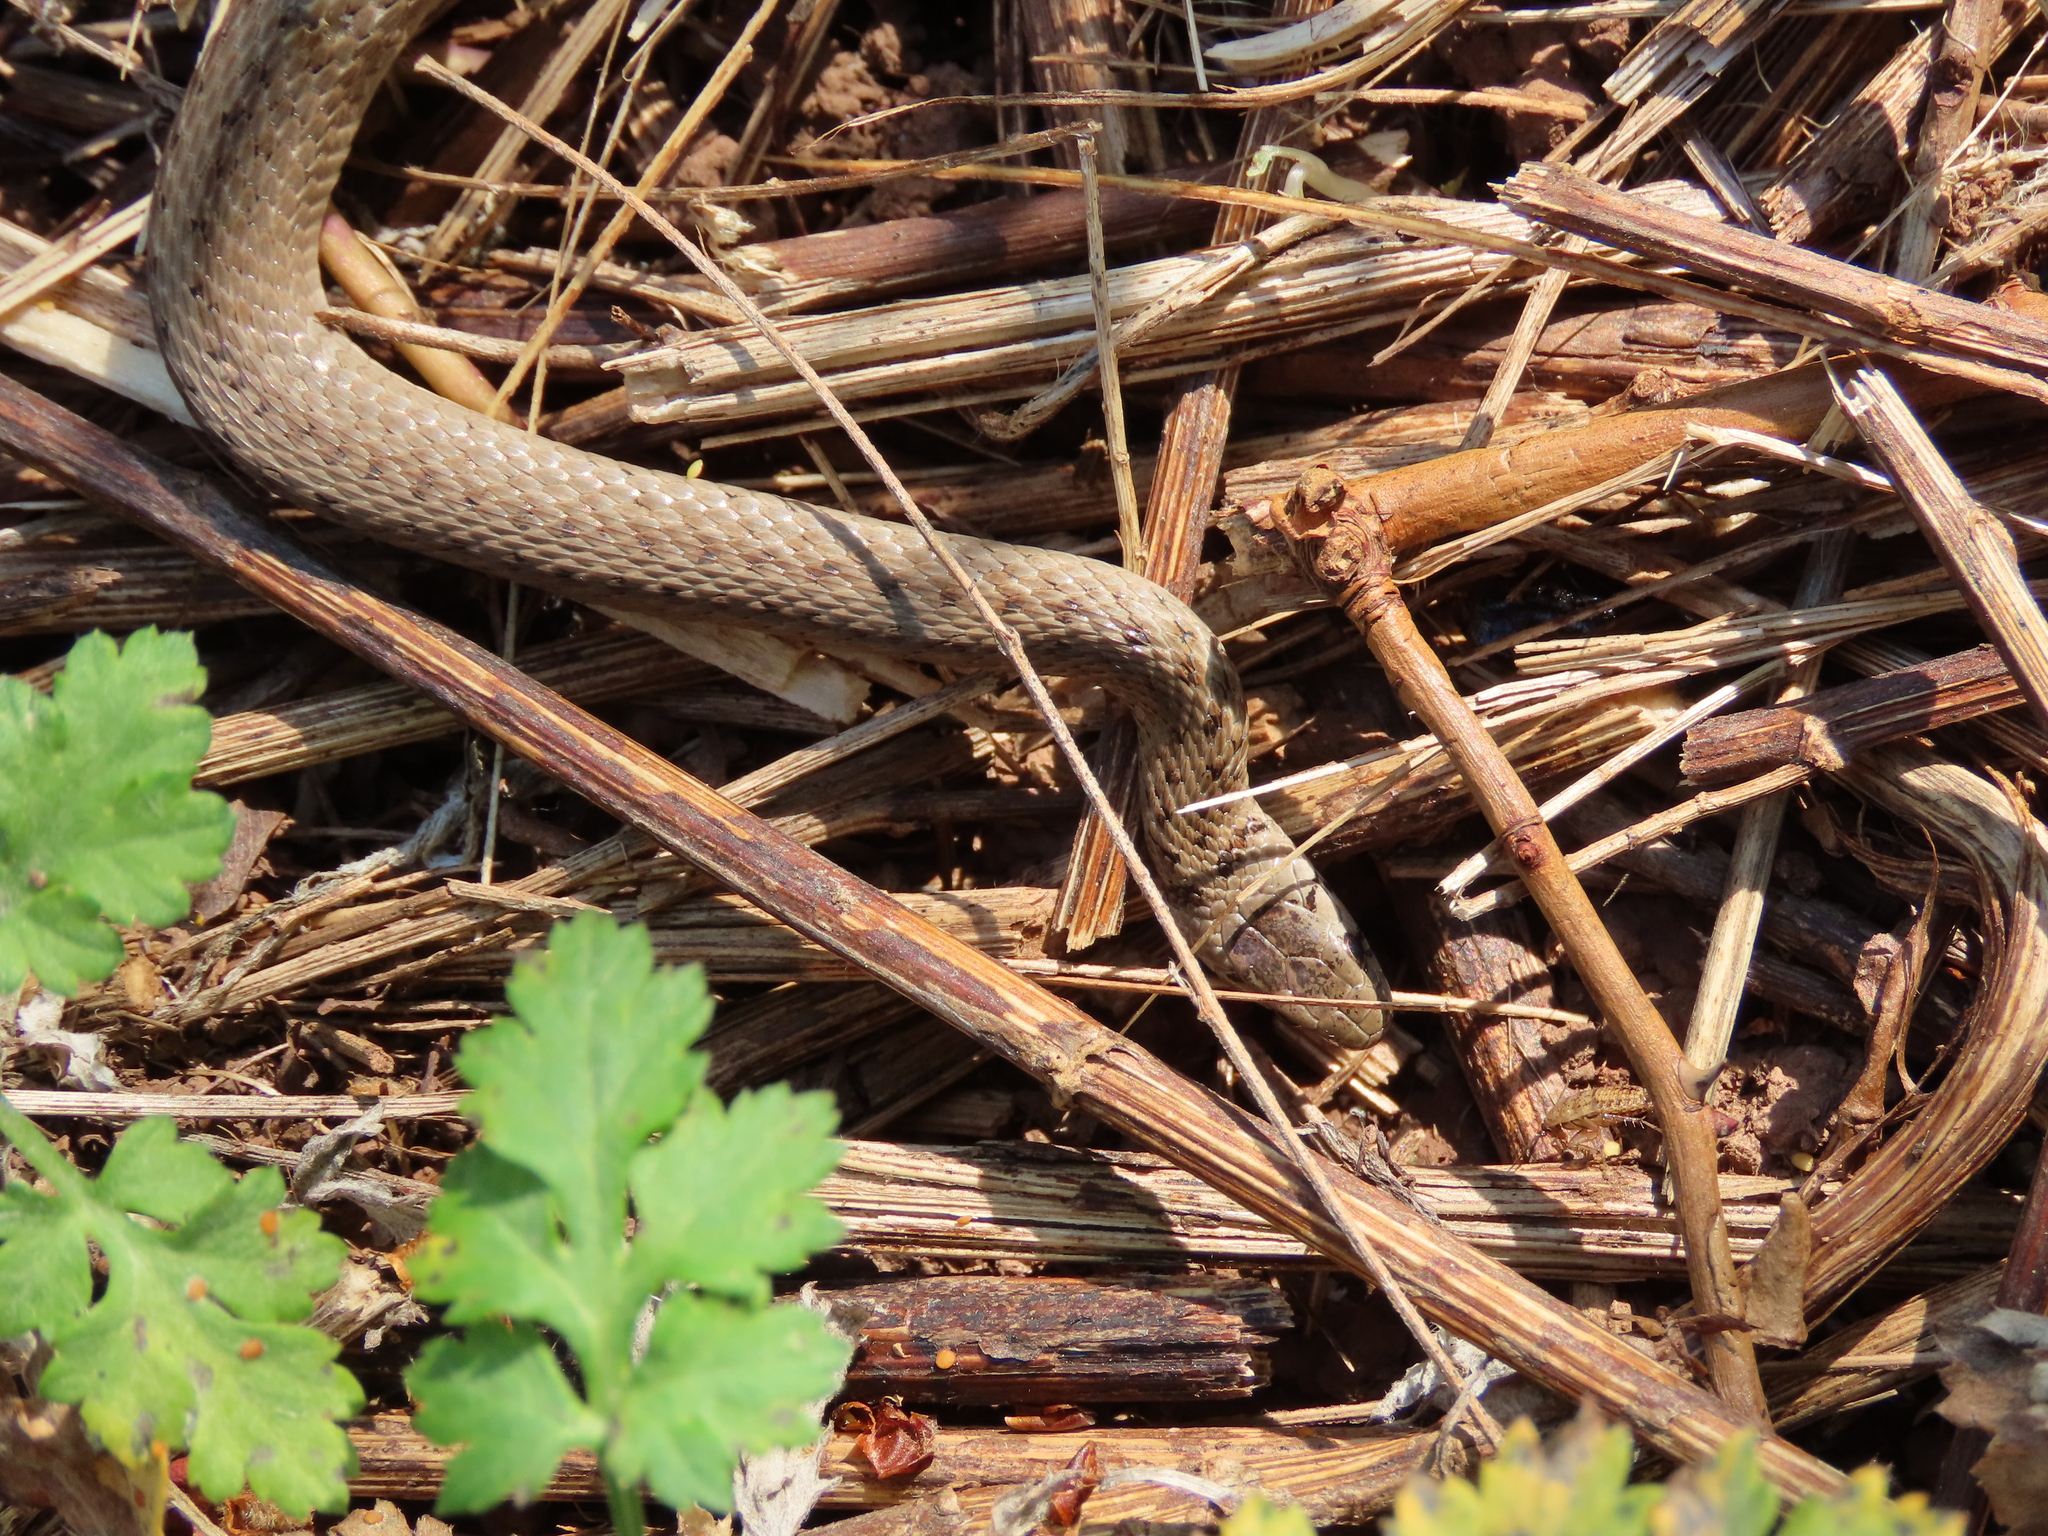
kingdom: Animalia
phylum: Chordata
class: Squamata
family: Colubridae
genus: Storeria
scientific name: Storeria dekayi
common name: (dekay’s) brown snake
